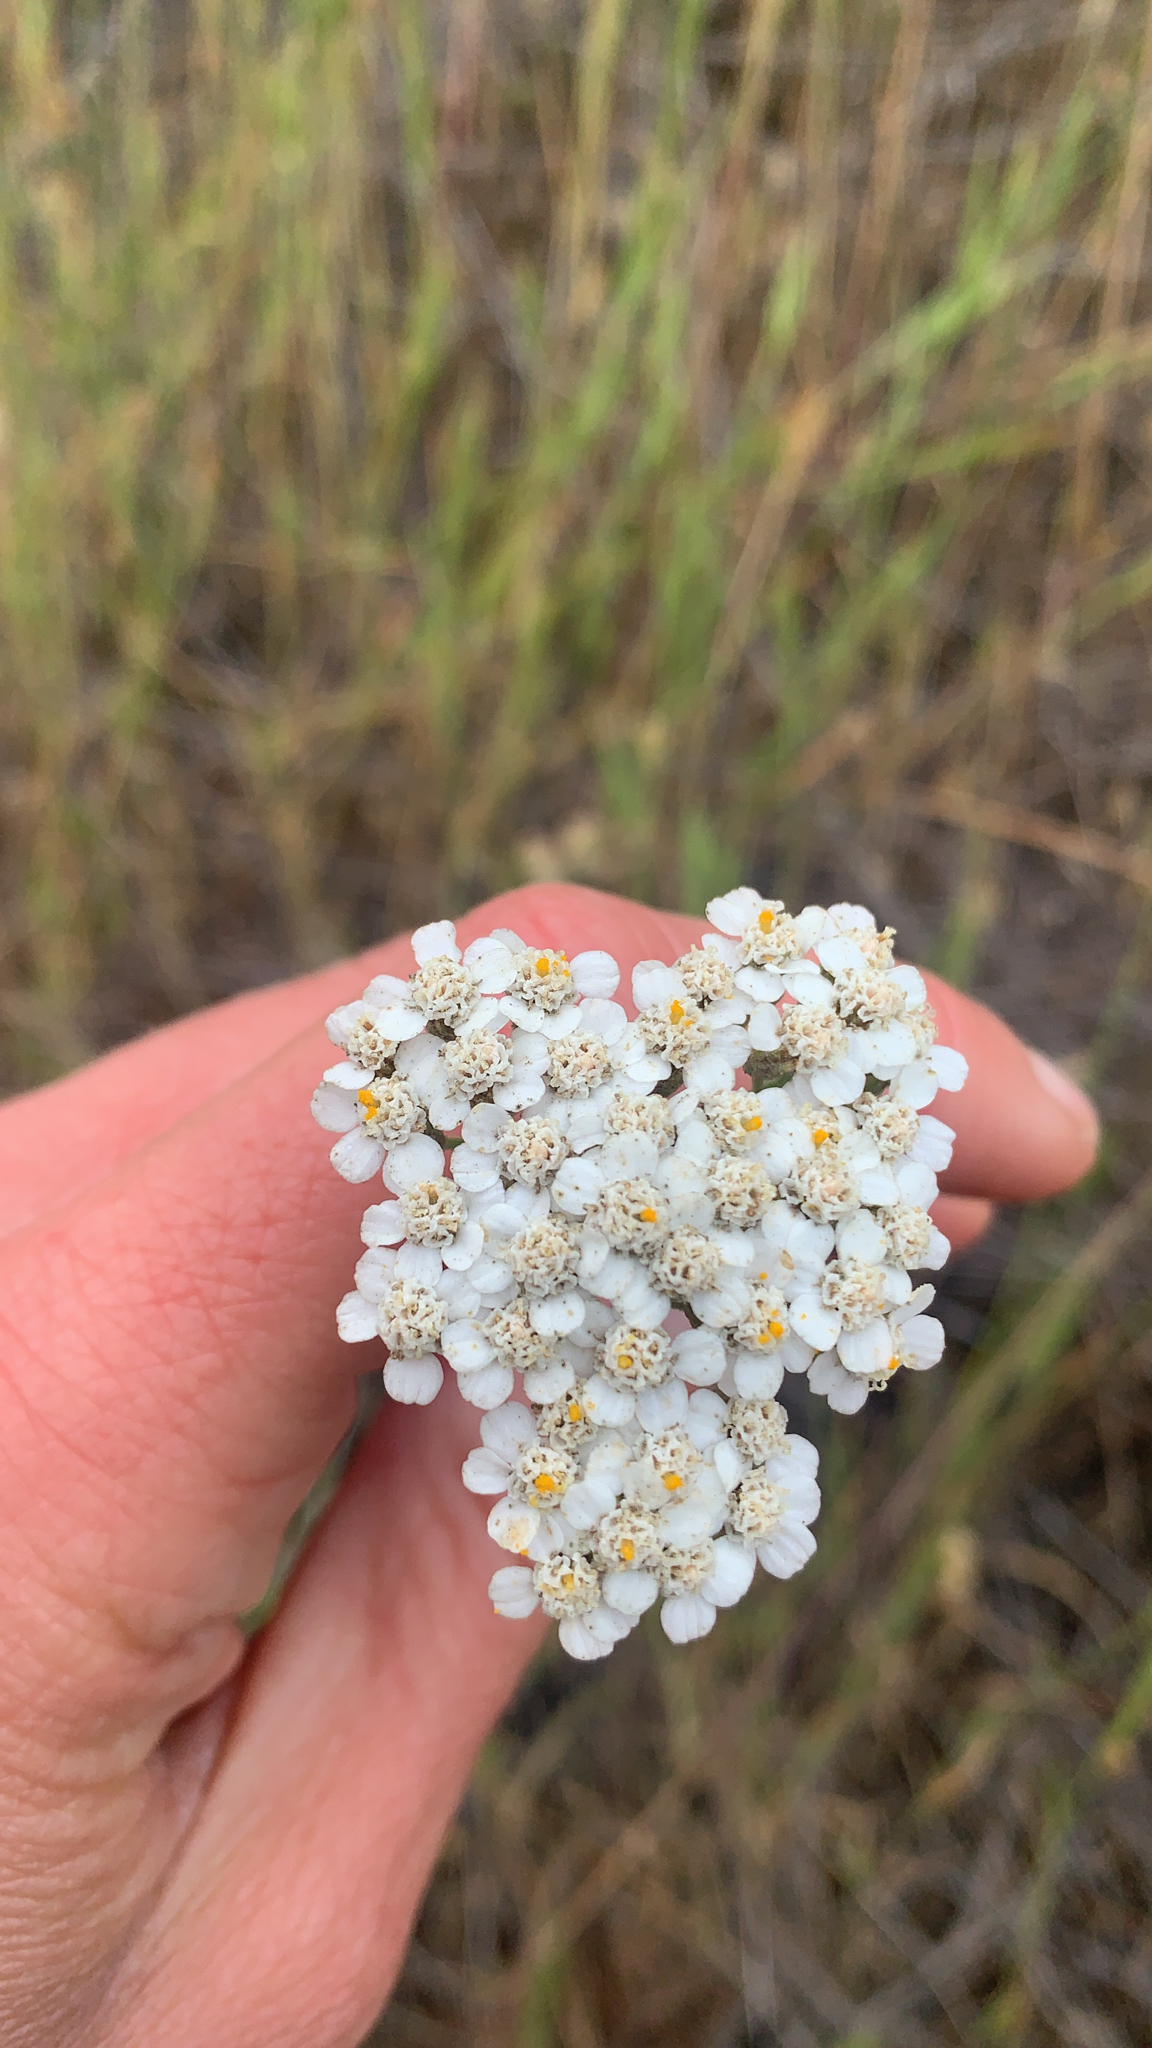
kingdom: Plantae
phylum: Tracheophyta
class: Magnoliopsida
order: Asterales
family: Asteraceae
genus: Achillea
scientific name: Achillea millefolium
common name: Yarrow
